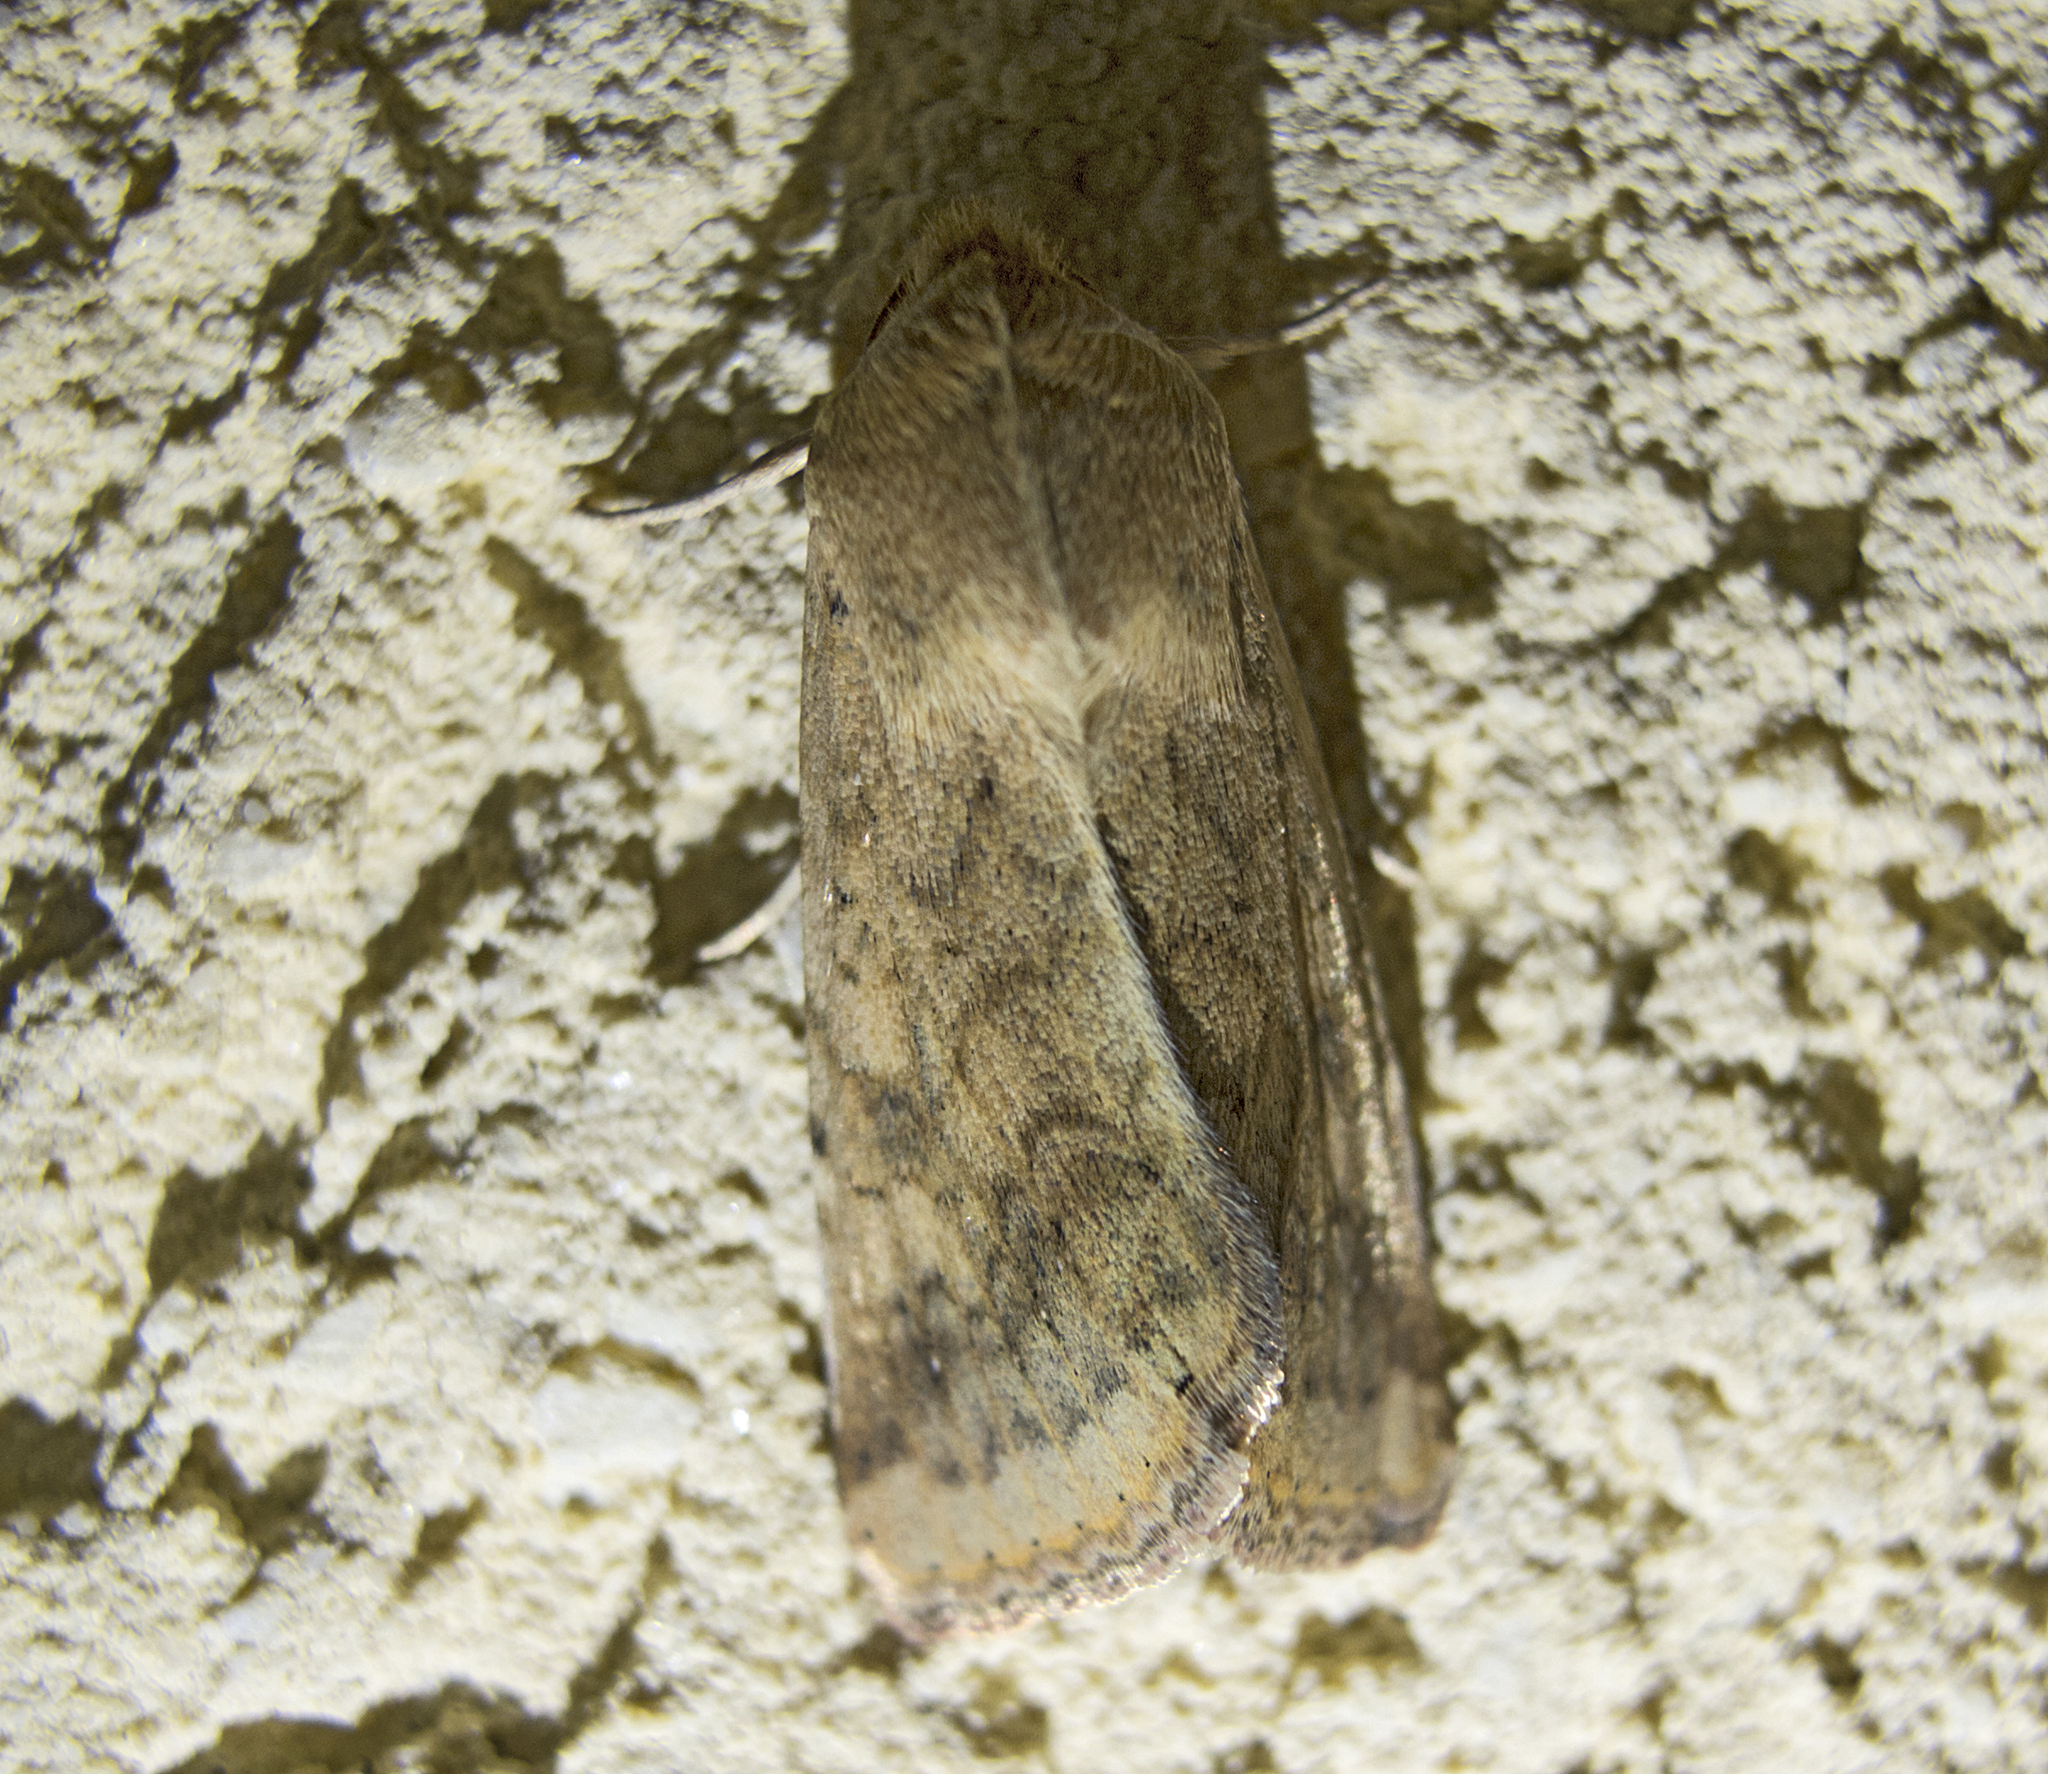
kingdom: Animalia
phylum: Arthropoda
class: Insecta
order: Lepidoptera
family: Noctuidae
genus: Helicoverpa
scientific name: Helicoverpa armigera
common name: Cotton bollworm
